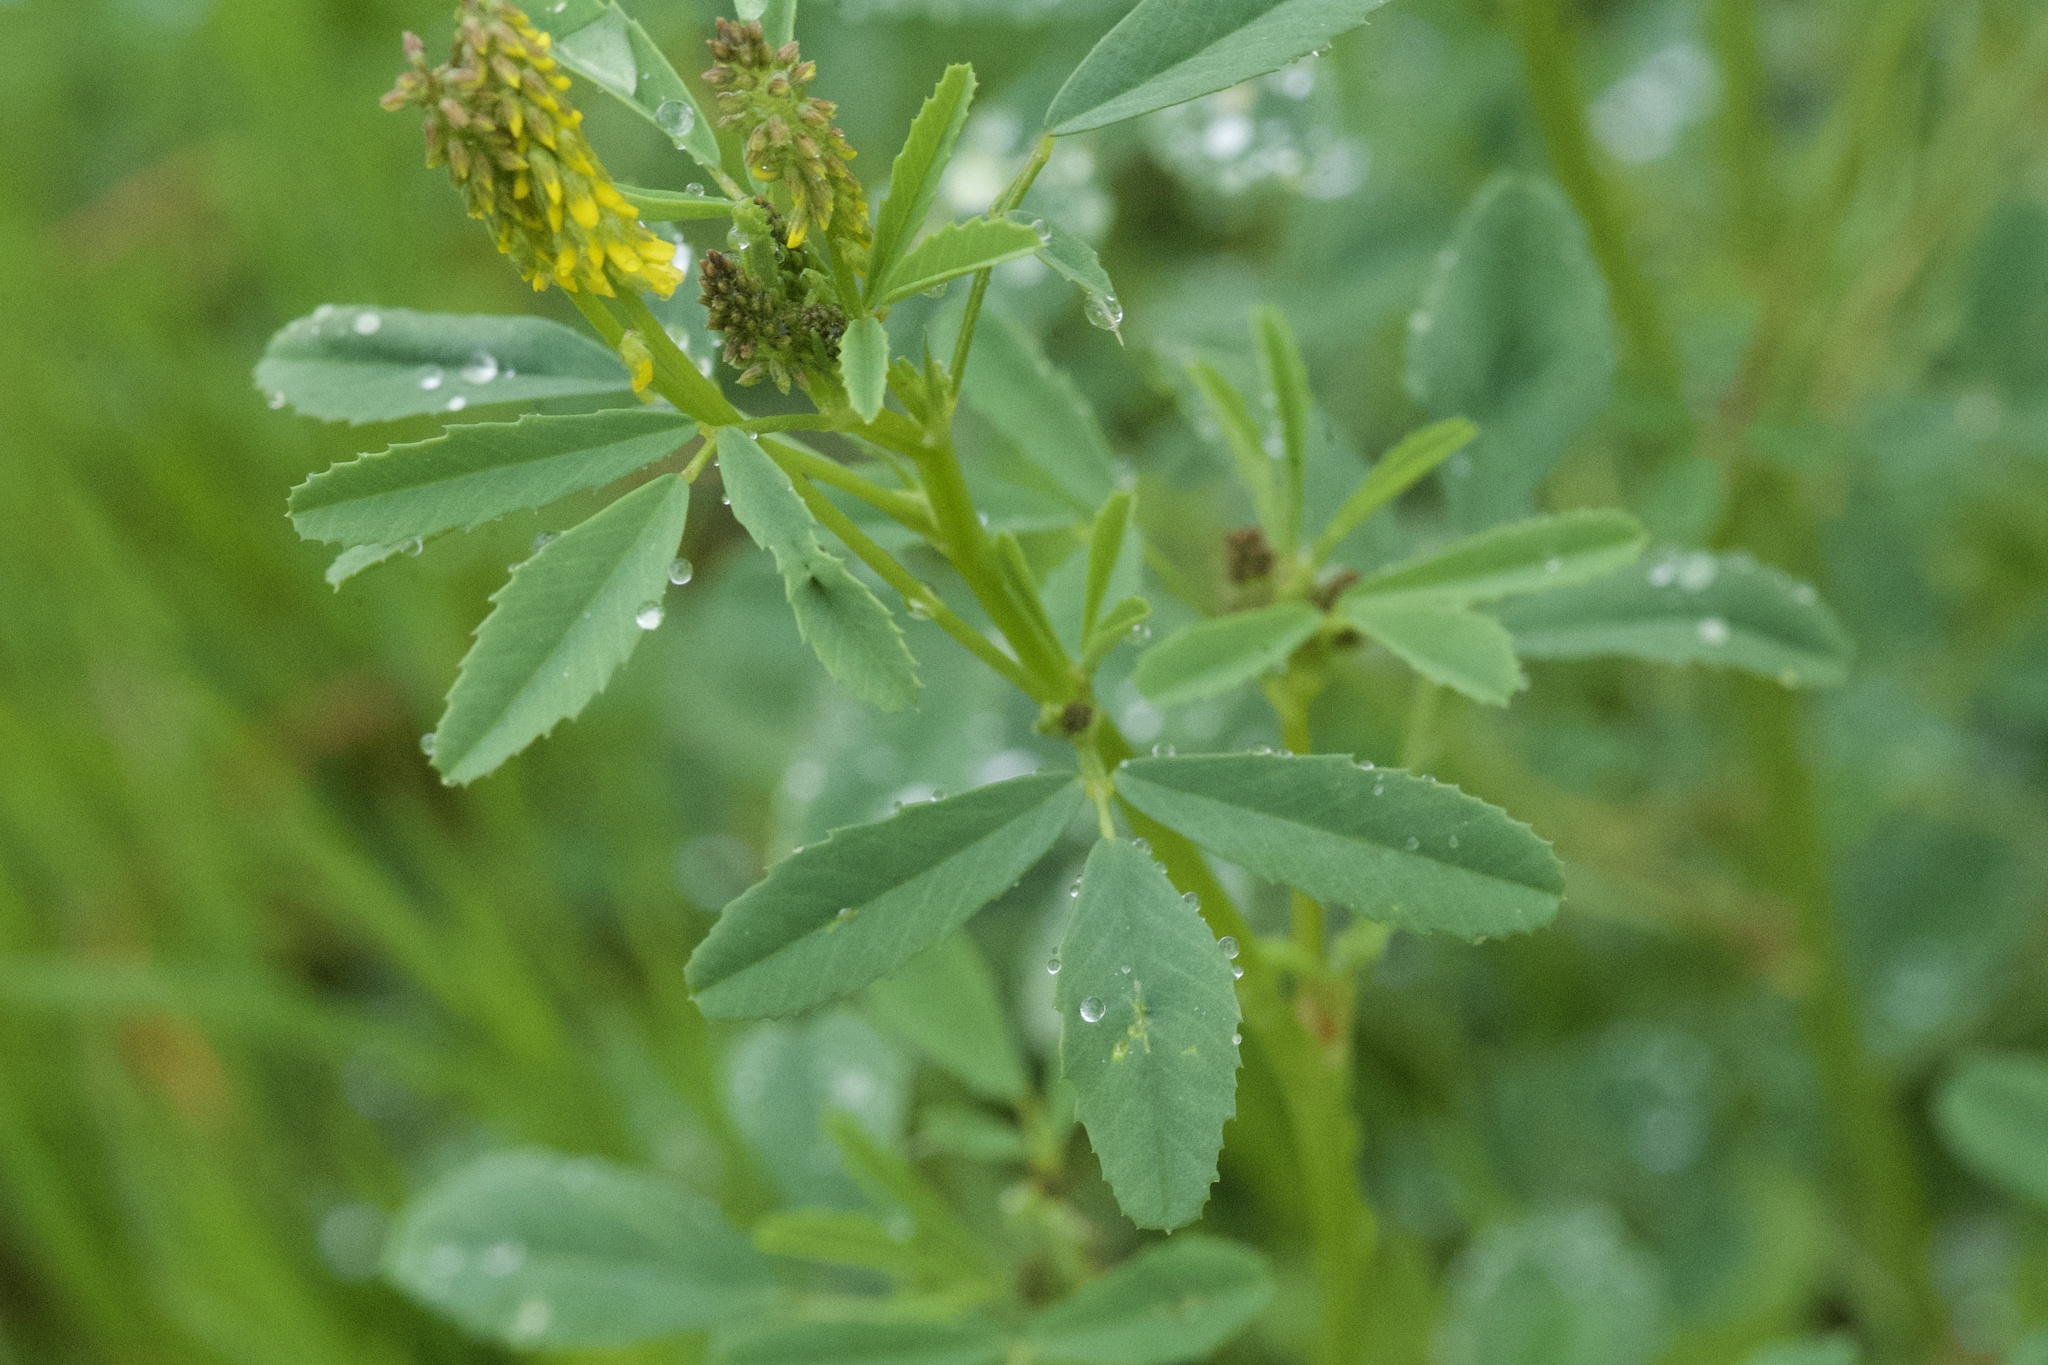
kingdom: Plantae
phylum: Tracheophyta
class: Magnoliopsida
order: Fabales
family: Fabaceae
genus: Melilotus
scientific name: Melilotus indicus
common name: Small melilot
